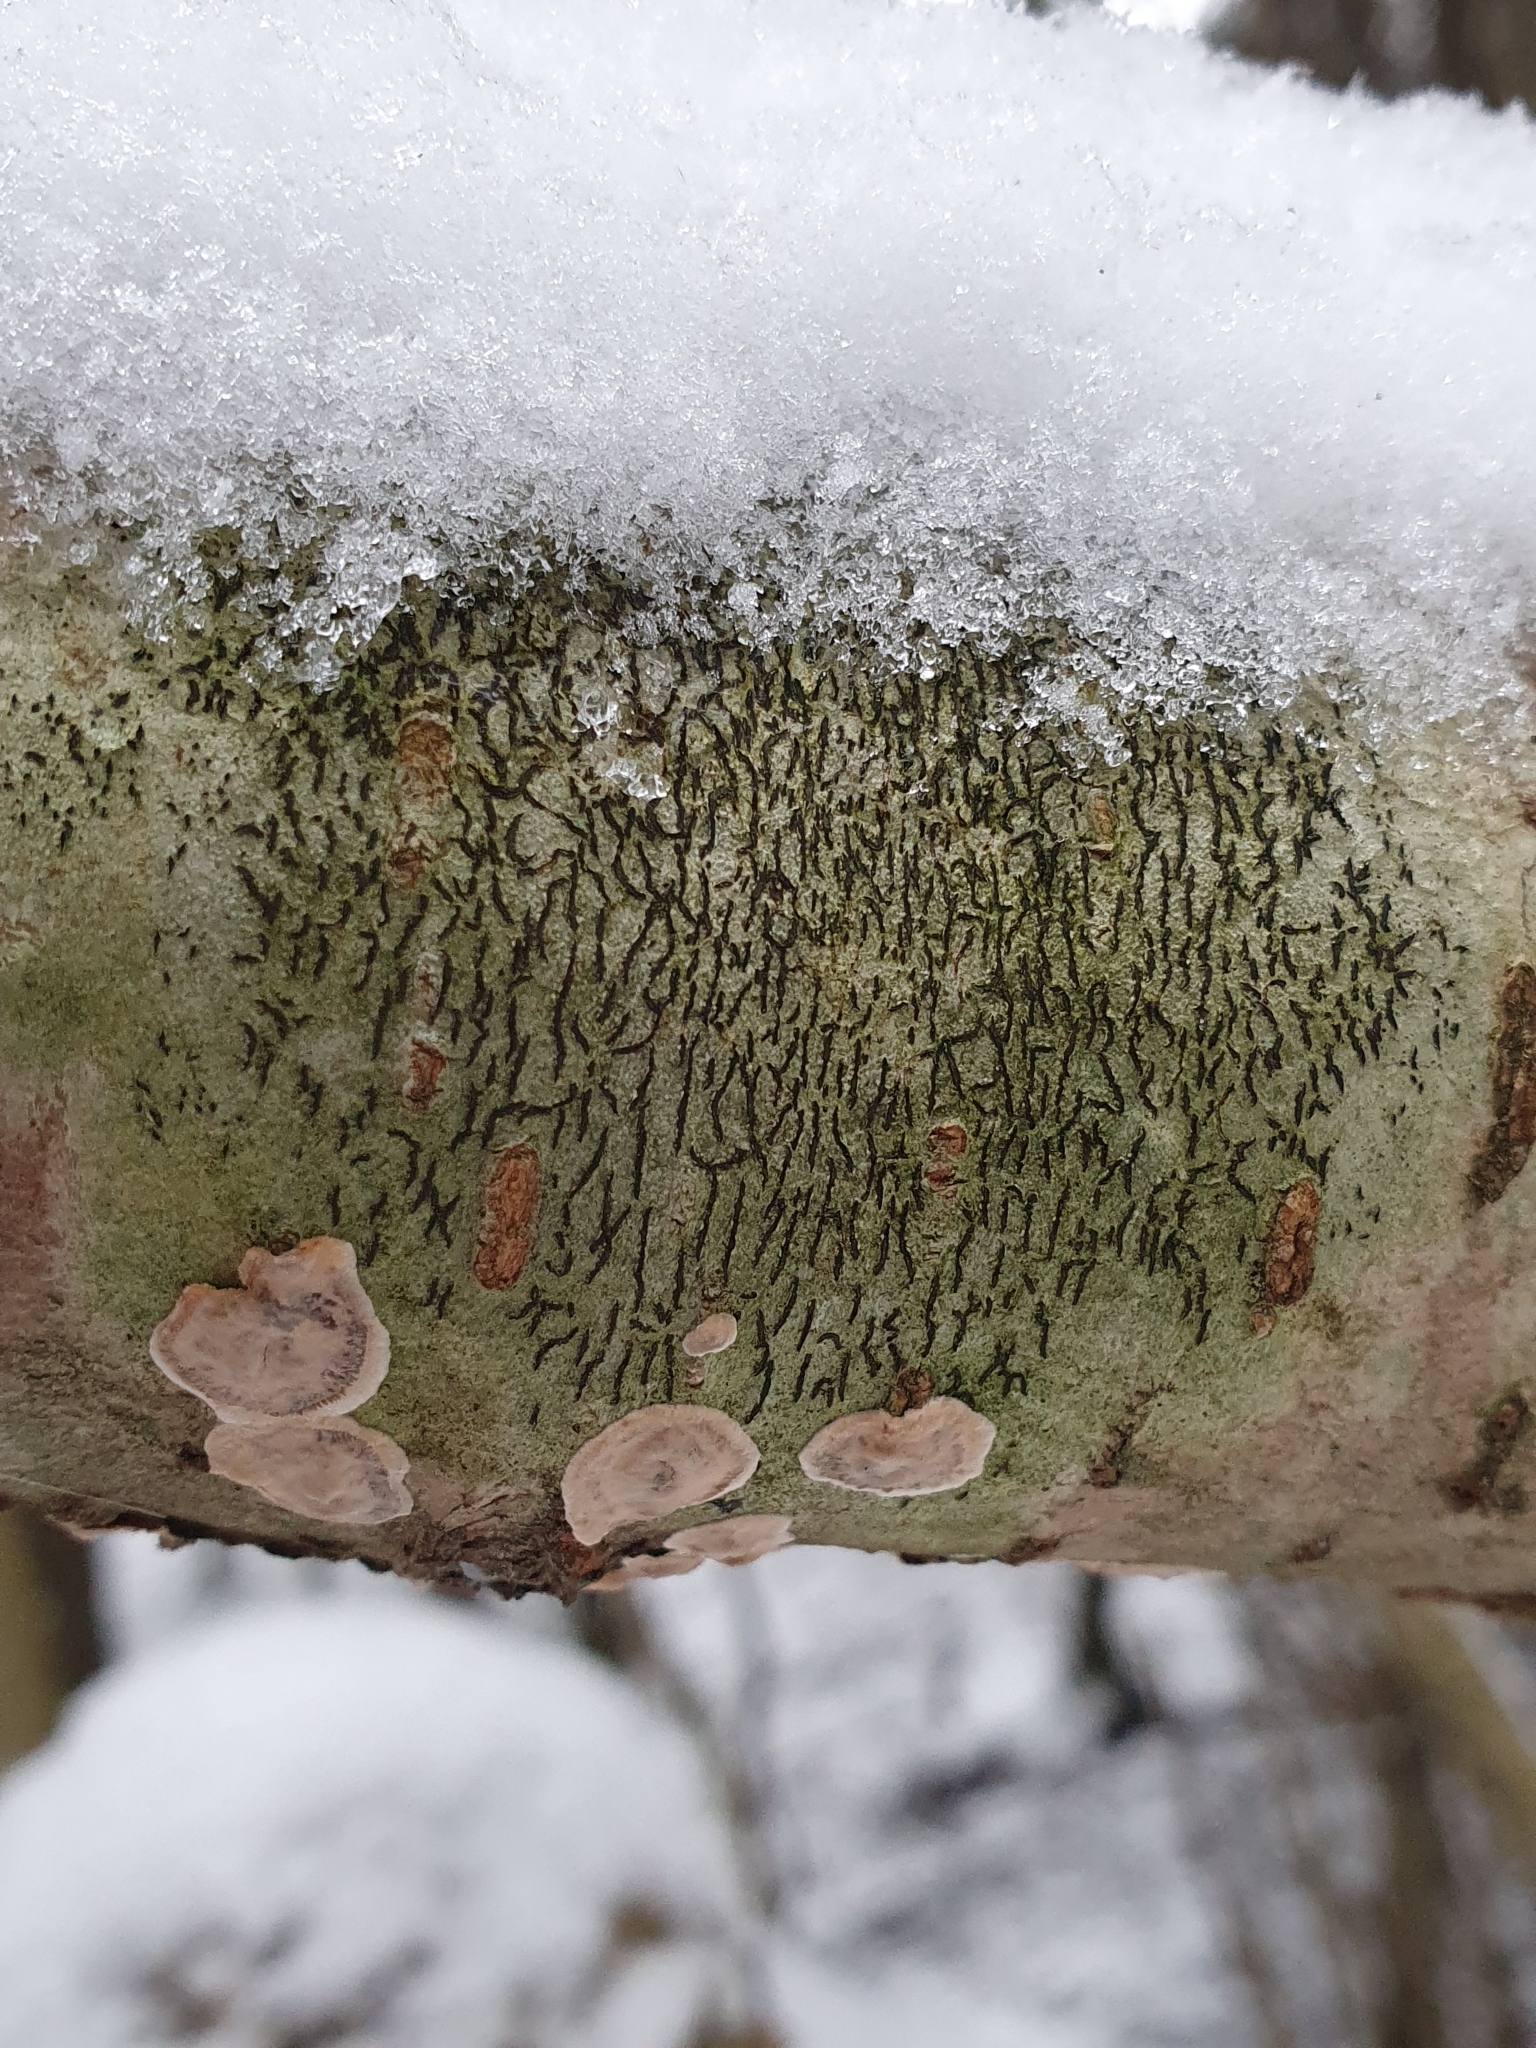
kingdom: Fungi
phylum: Ascomycota
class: Lecanoromycetes
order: Ostropales
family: Graphidaceae
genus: Graphis
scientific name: Graphis scripta
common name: Script lichen
